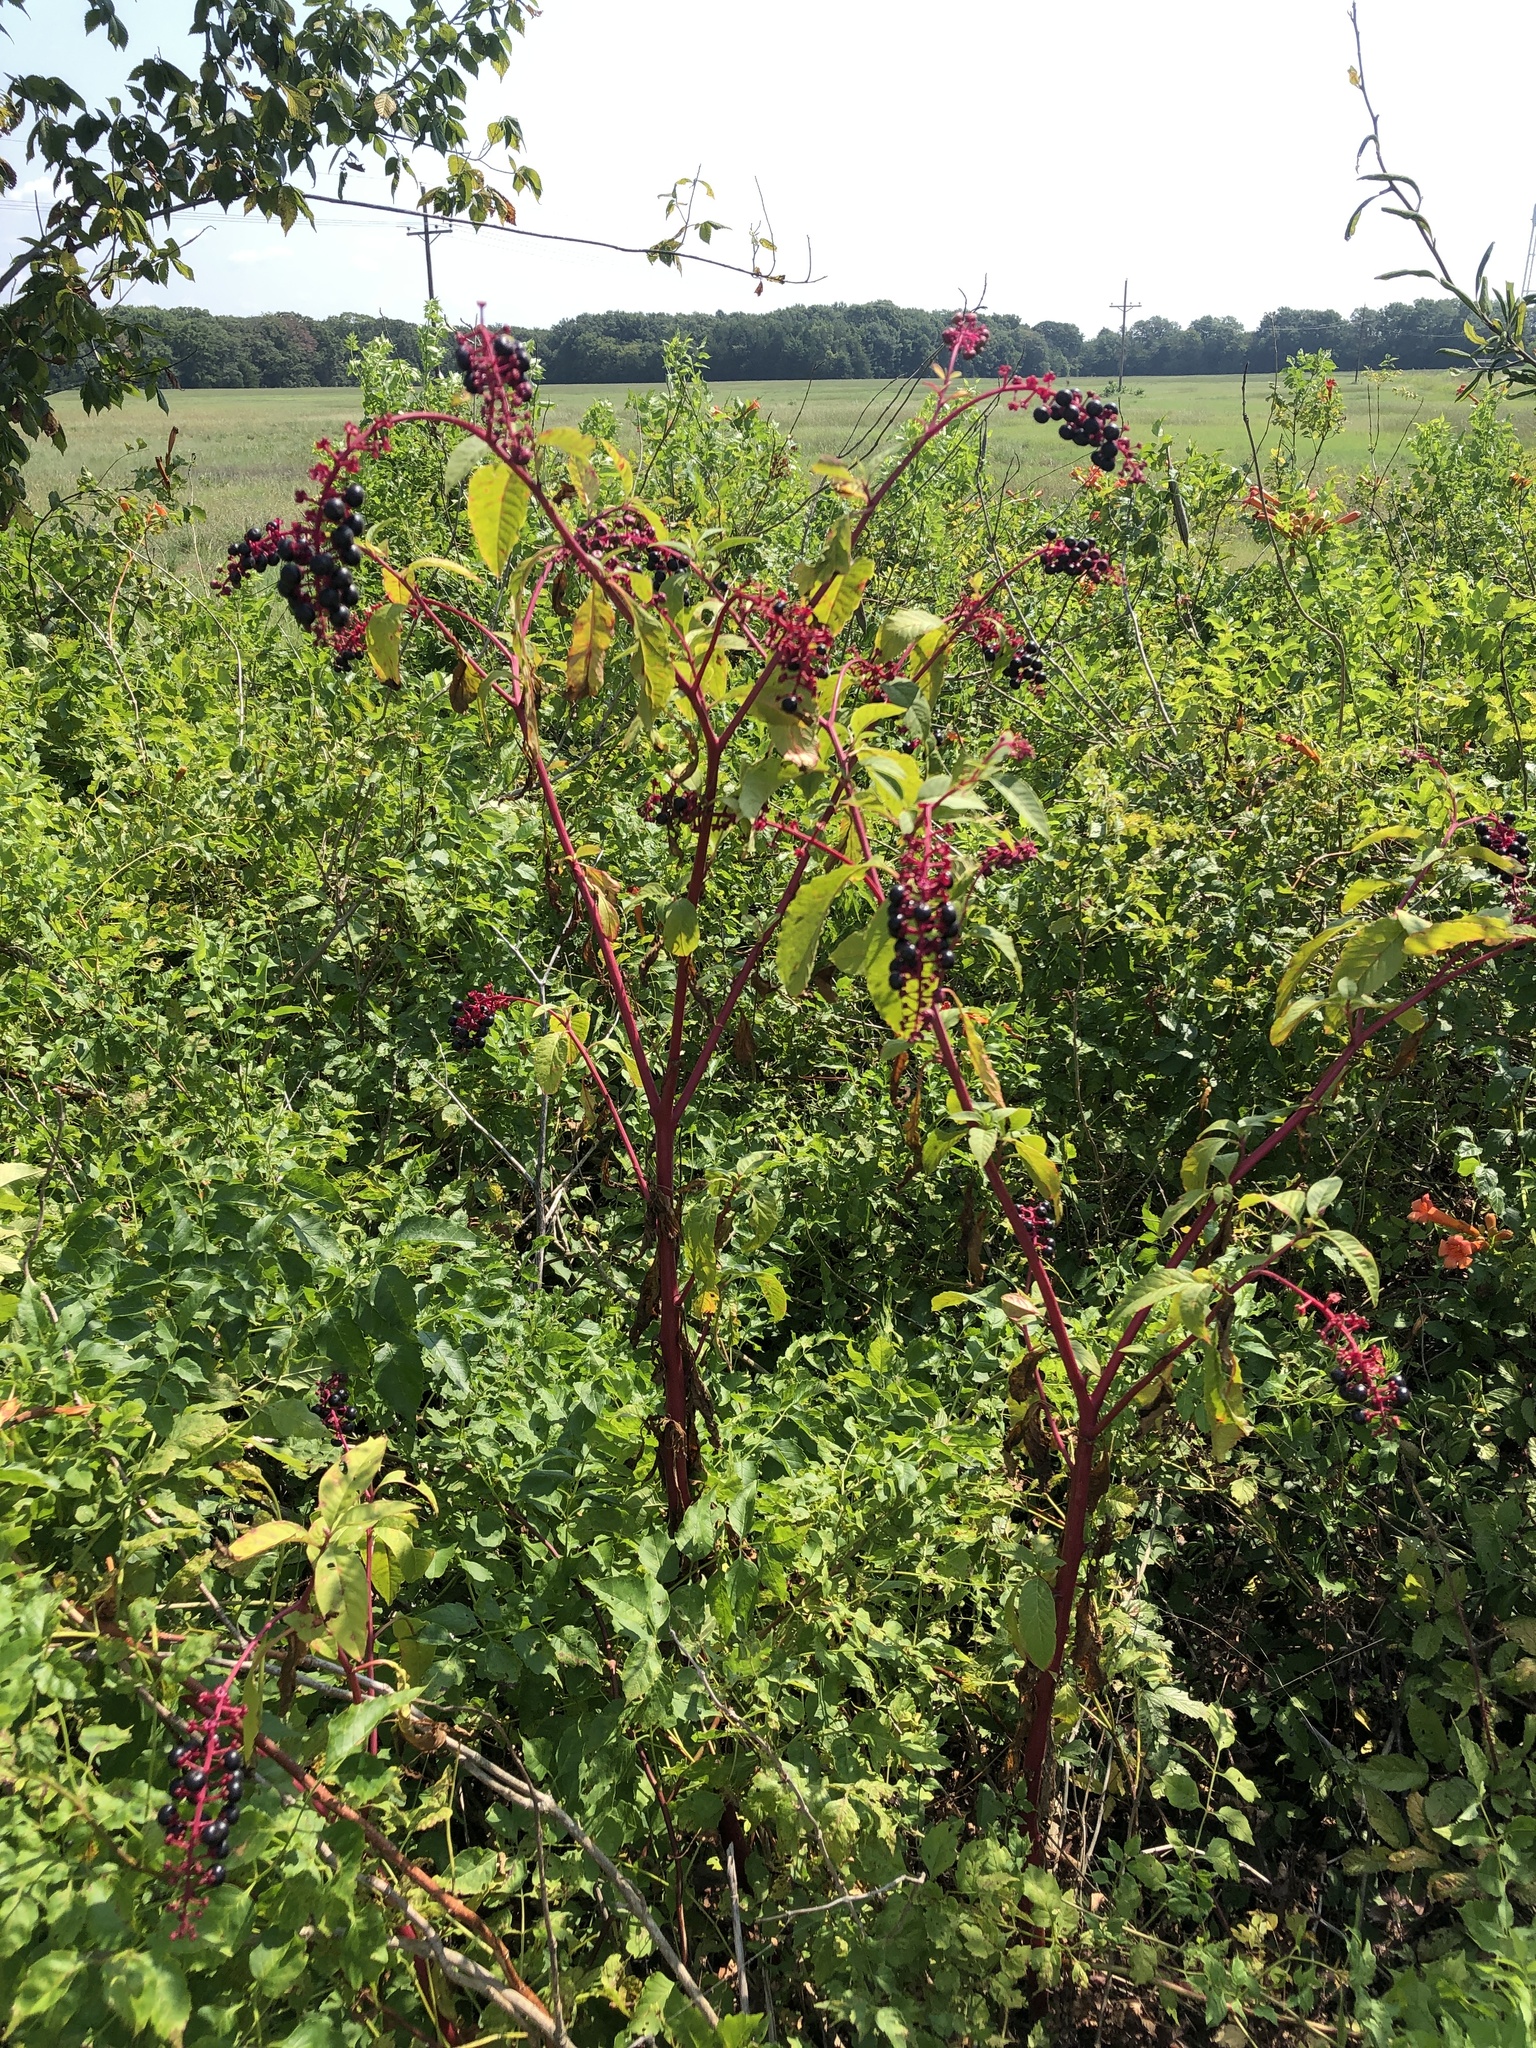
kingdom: Plantae
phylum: Tracheophyta
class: Magnoliopsida
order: Caryophyllales
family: Phytolaccaceae
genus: Phytolacca
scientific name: Phytolacca americana
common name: American pokeweed
